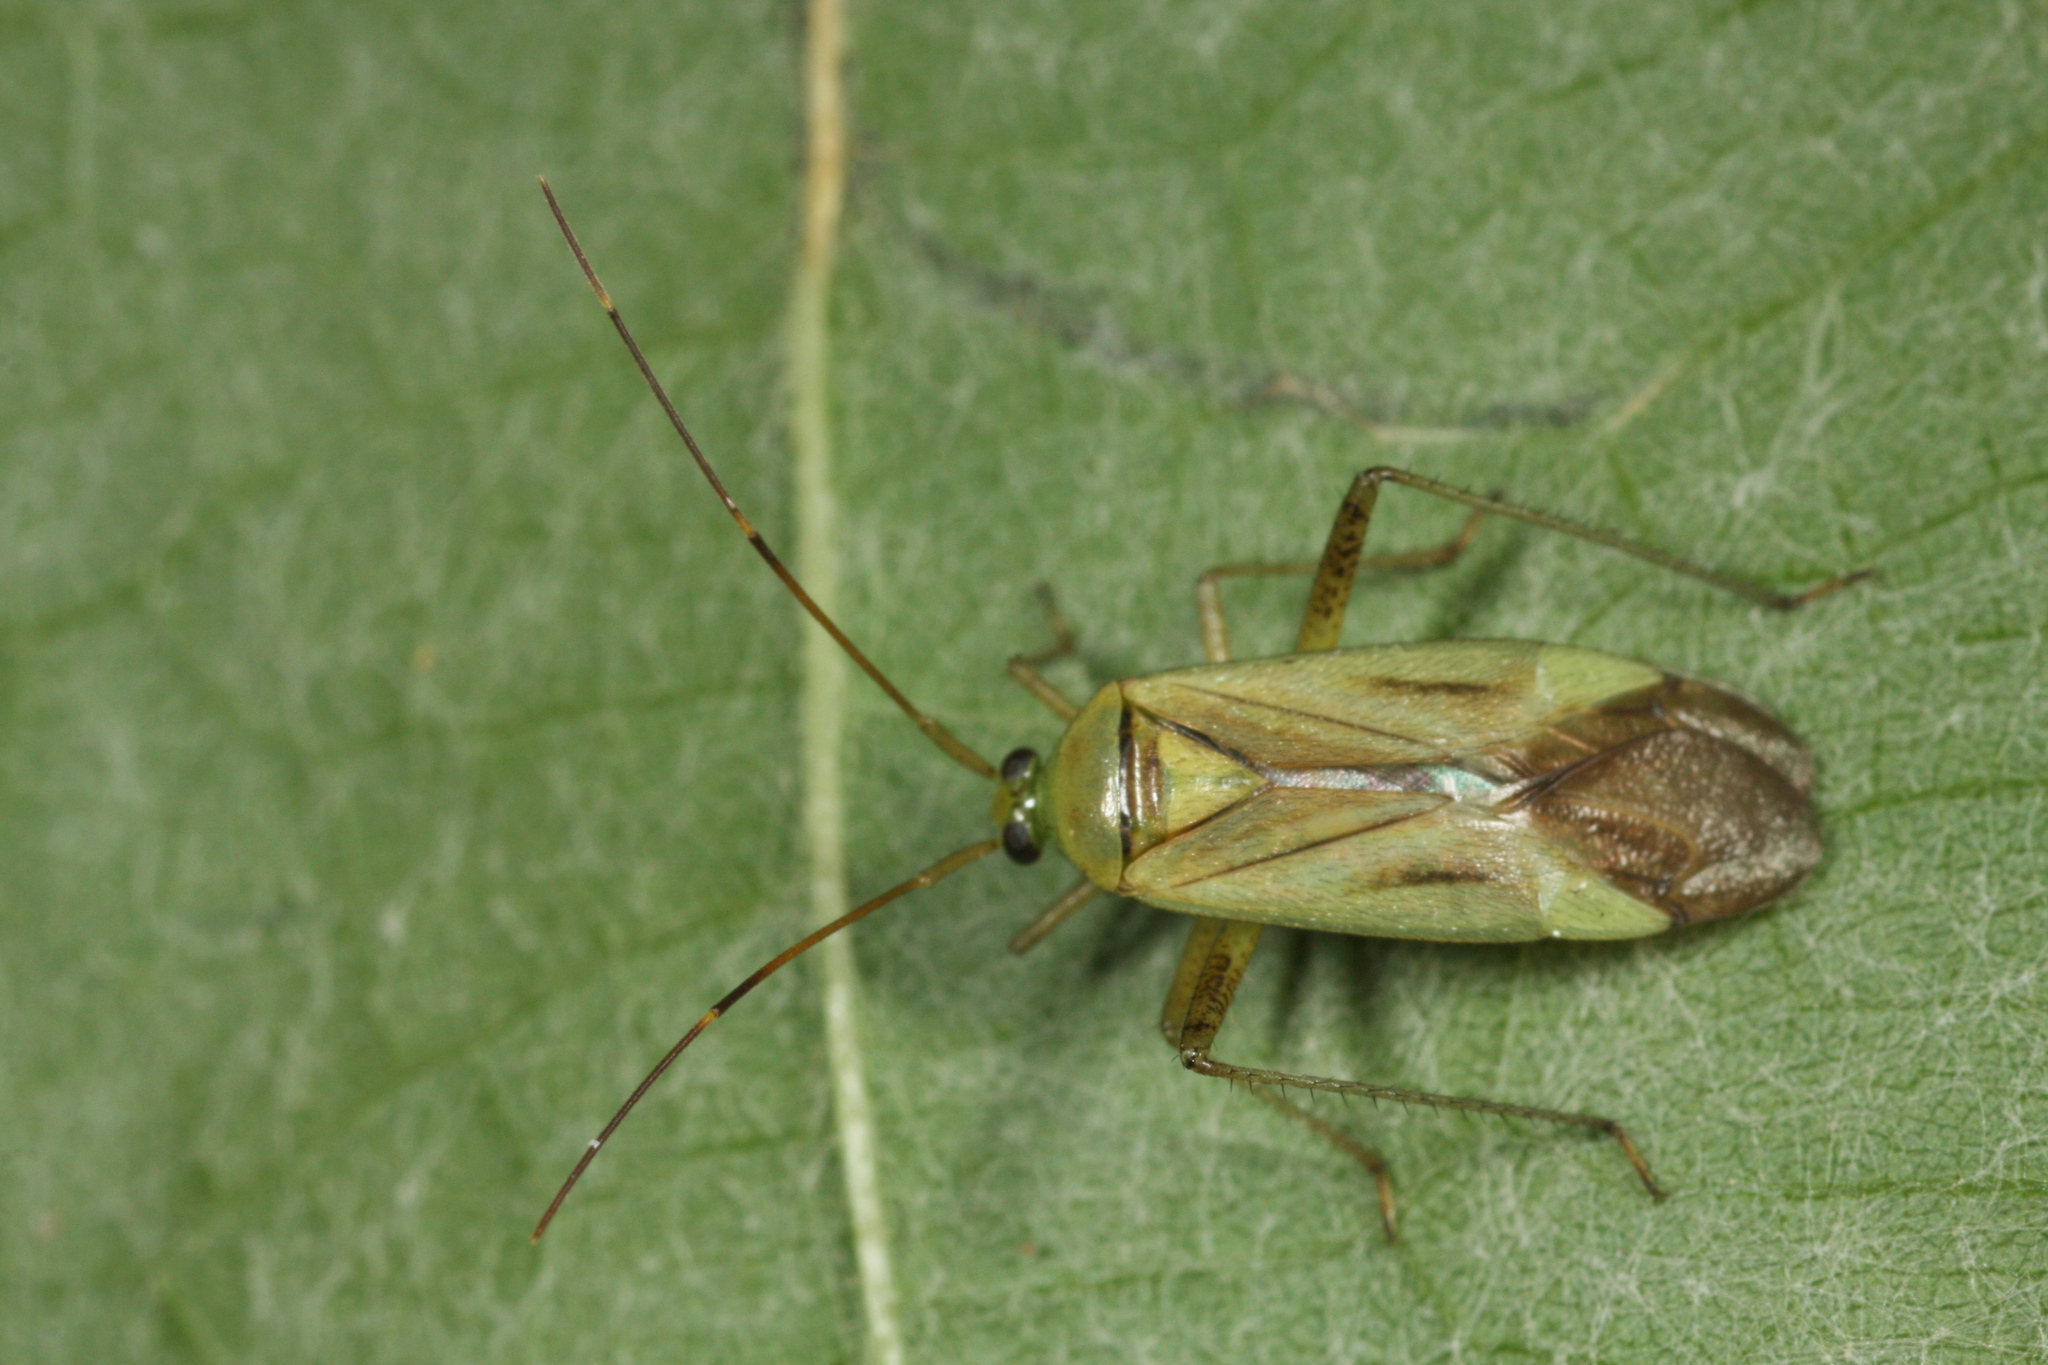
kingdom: Animalia
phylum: Arthropoda
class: Insecta
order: Hemiptera
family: Miridae
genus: Adelphocoris
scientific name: Adelphocoris quadripunctatus
